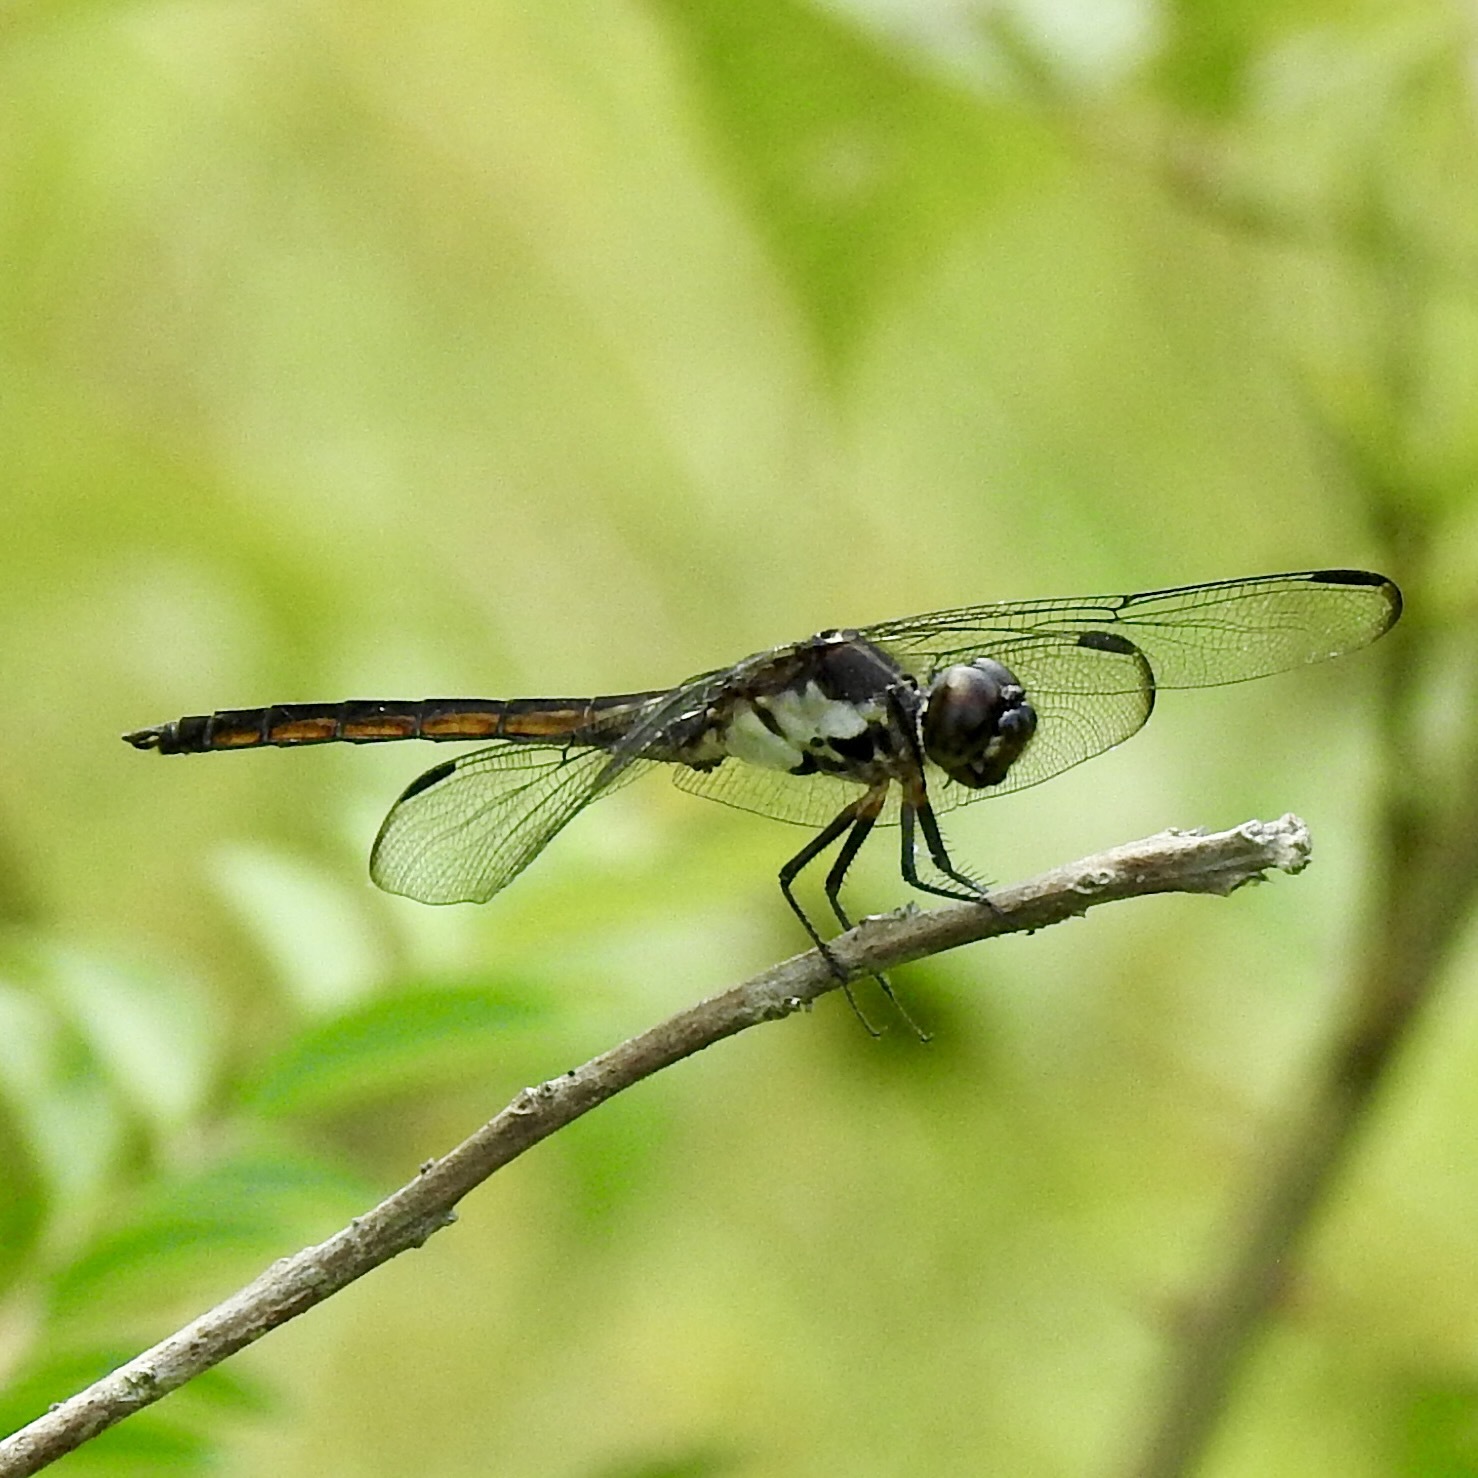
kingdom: Animalia
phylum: Arthropoda
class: Insecta
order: Odonata
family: Libellulidae
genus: Libellula
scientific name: Libellula incesta
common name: Slaty skimmer
